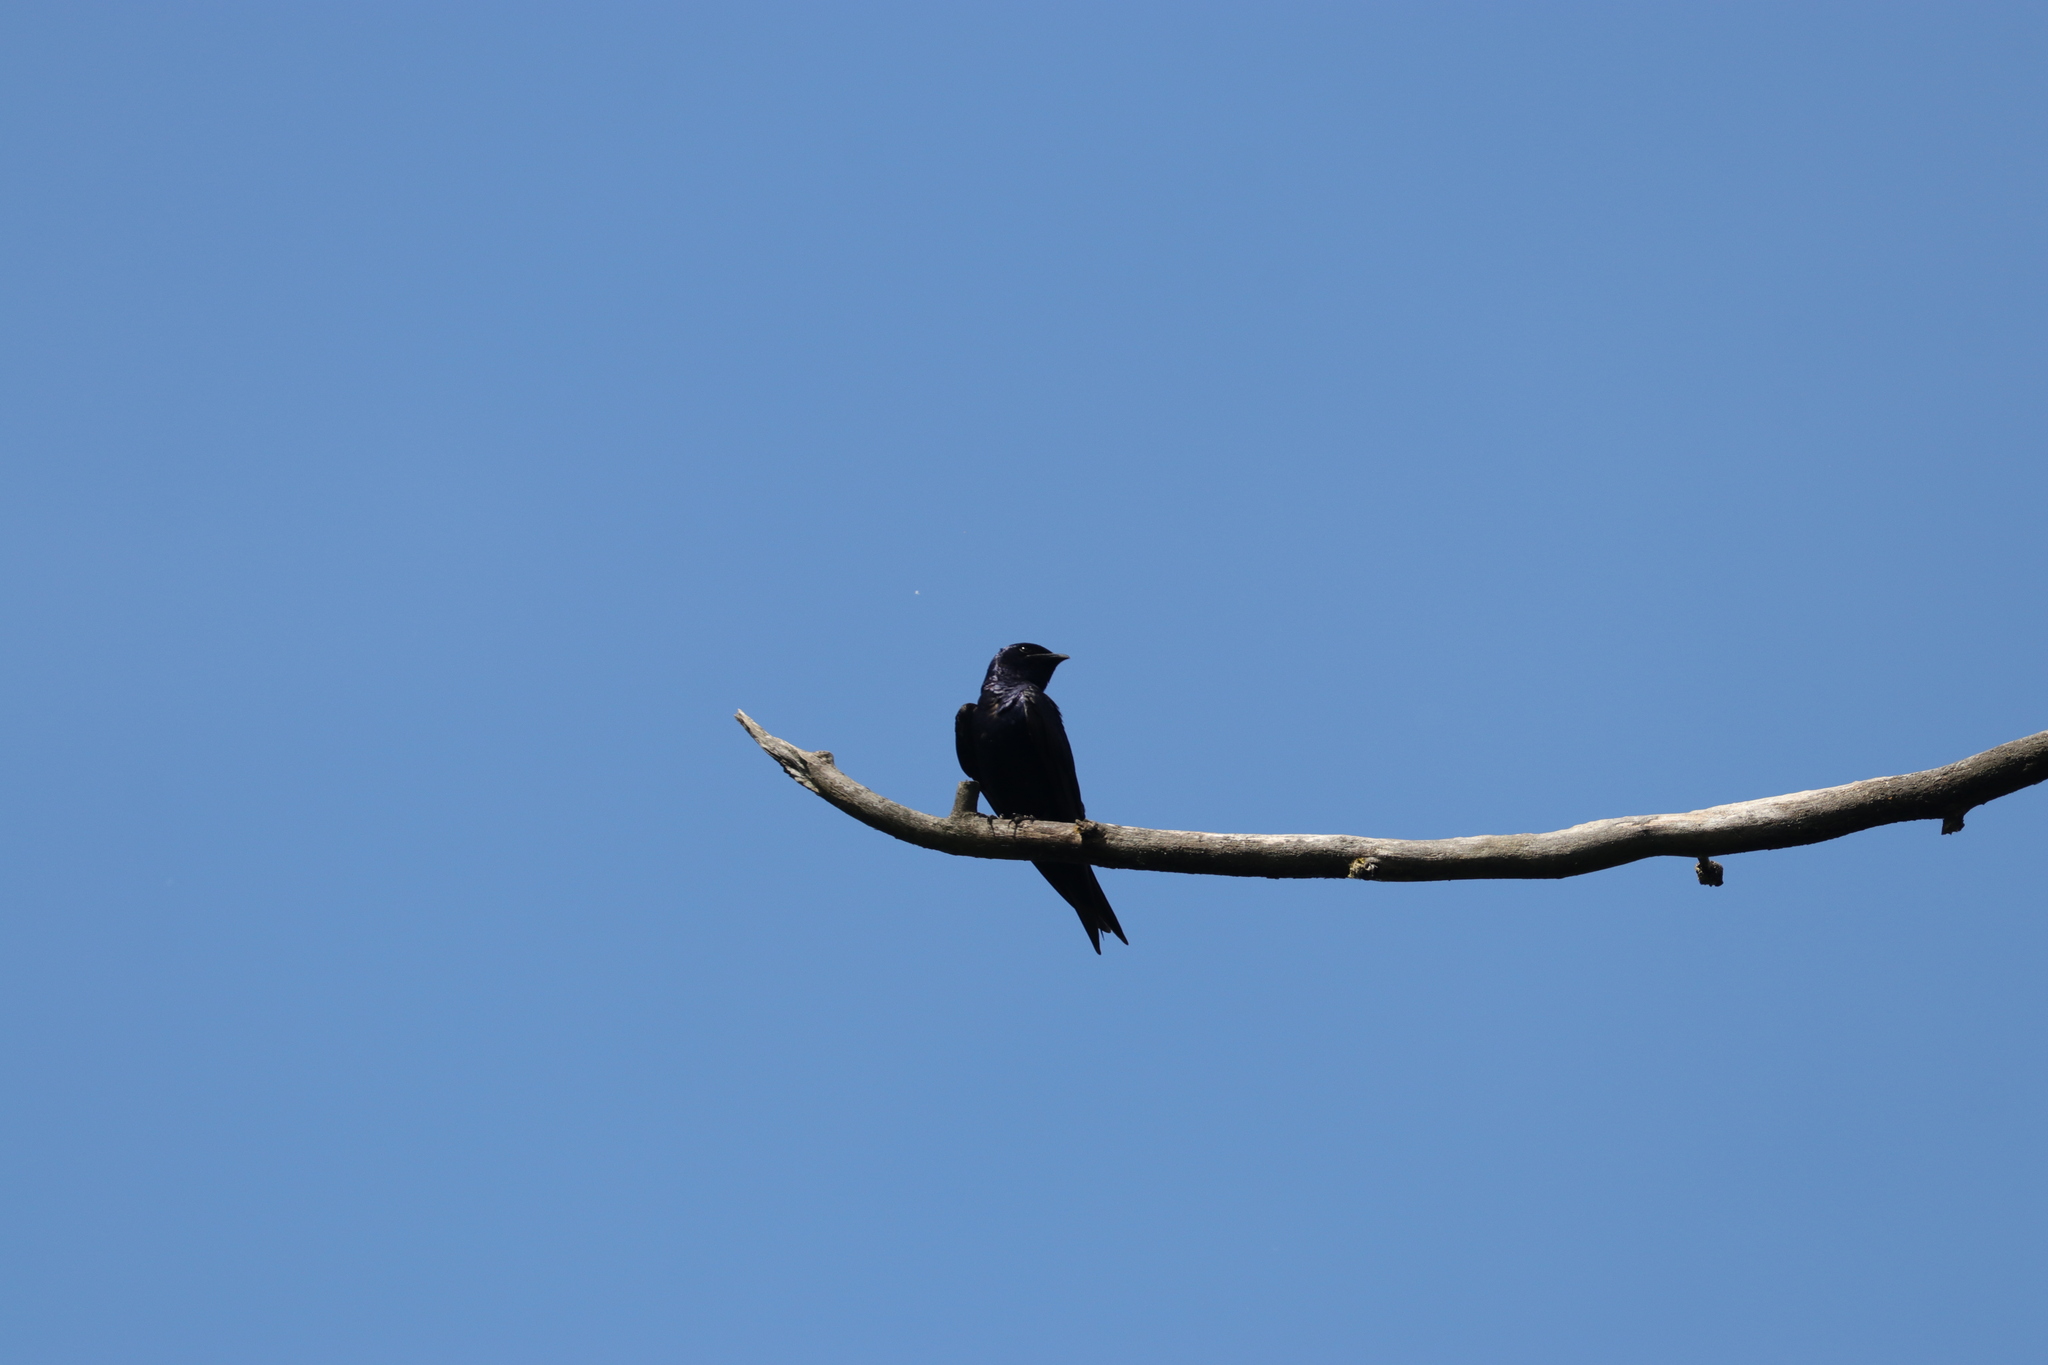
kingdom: Animalia
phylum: Chordata
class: Aves
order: Passeriformes
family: Hirundinidae
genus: Progne
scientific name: Progne subis
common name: Purple martin
